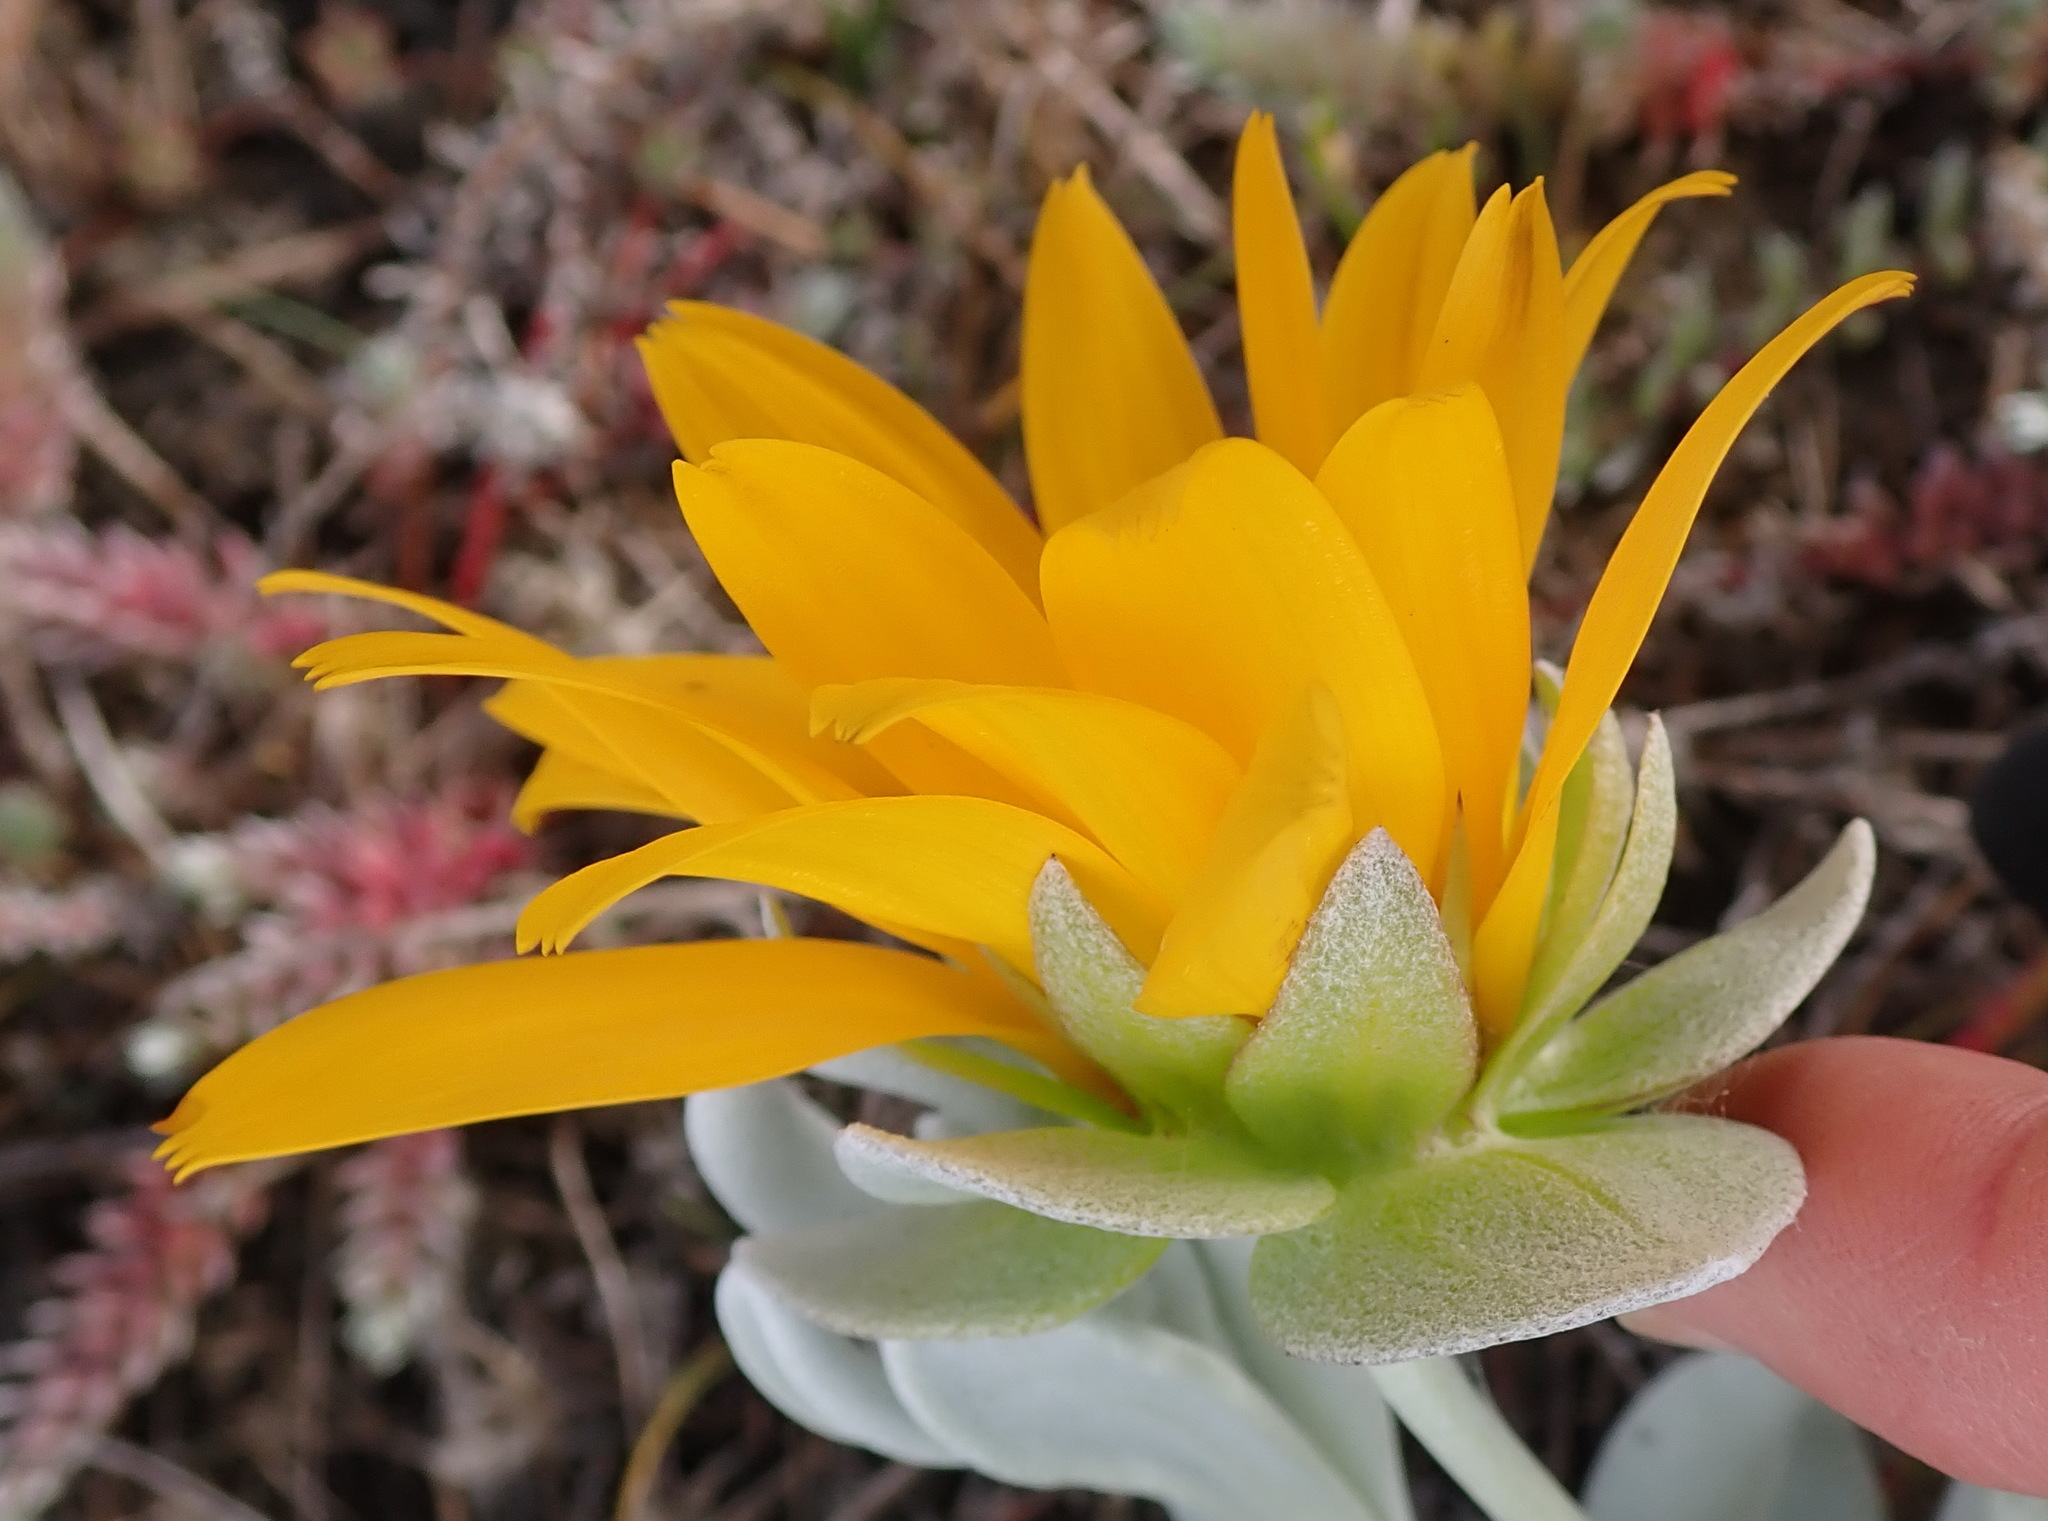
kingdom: Plantae
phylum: Tracheophyta
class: Magnoliopsida
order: Asterales
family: Asteraceae
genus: Didelta
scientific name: Didelta carnosa
